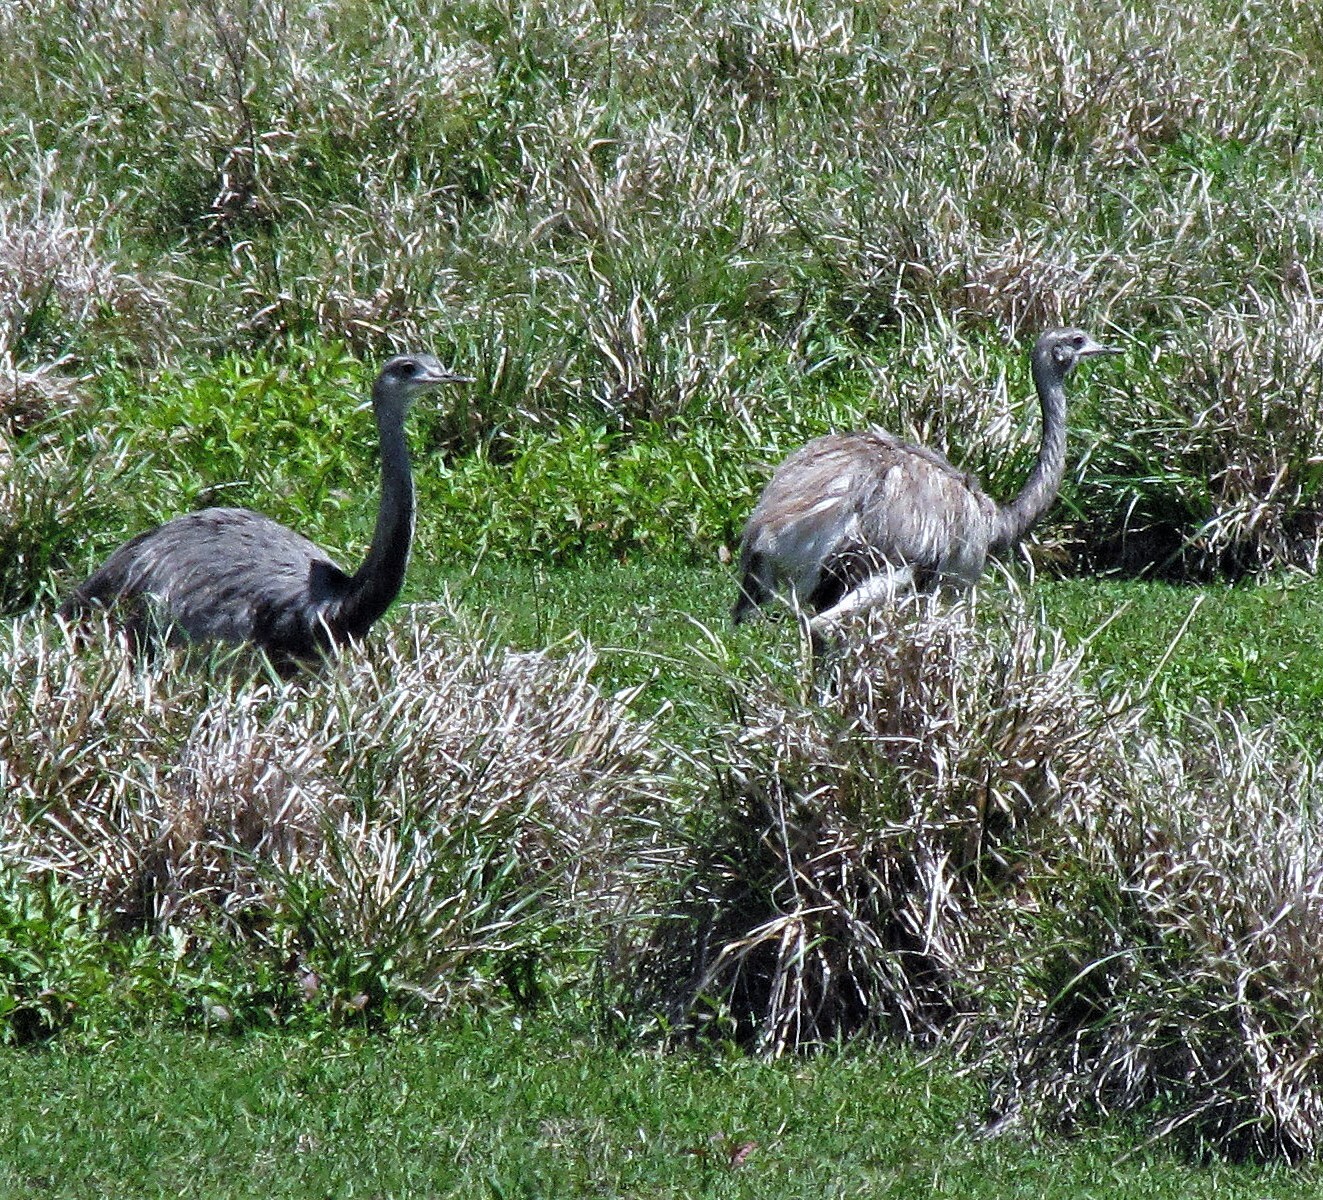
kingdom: Animalia
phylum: Chordata
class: Aves
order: Rheiformes
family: Rheidae
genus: Rhea
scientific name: Rhea americana
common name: Greater rhea
